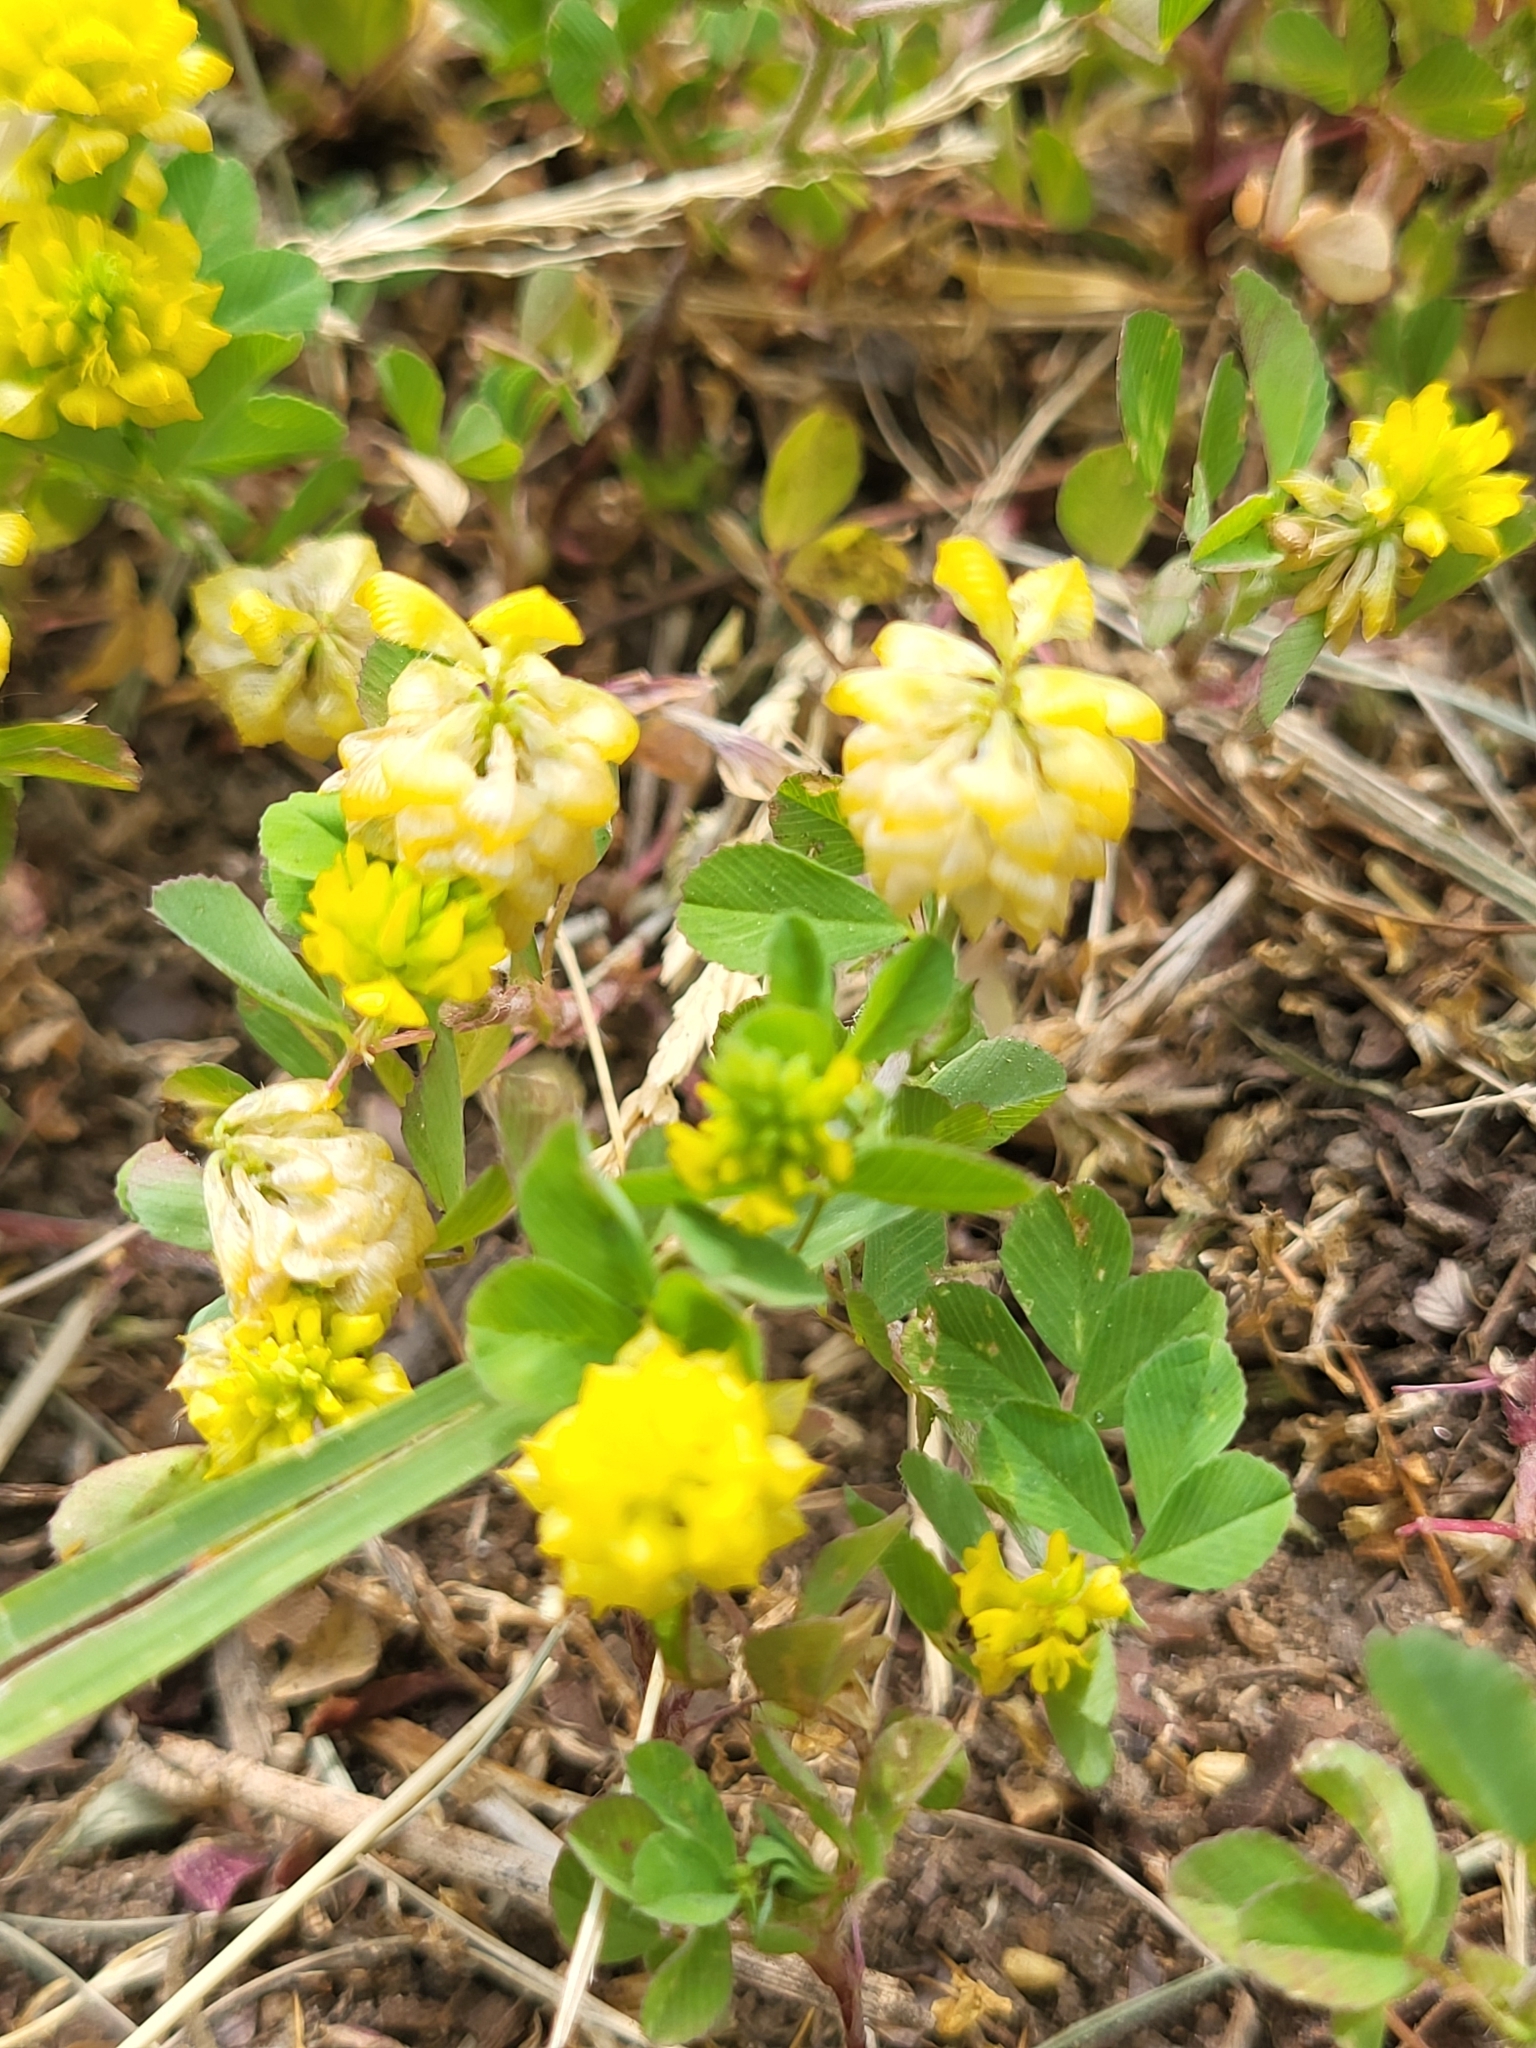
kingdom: Plantae
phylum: Tracheophyta
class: Magnoliopsida
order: Fabales
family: Fabaceae
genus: Trifolium
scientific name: Trifolium campestre
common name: Field clover
